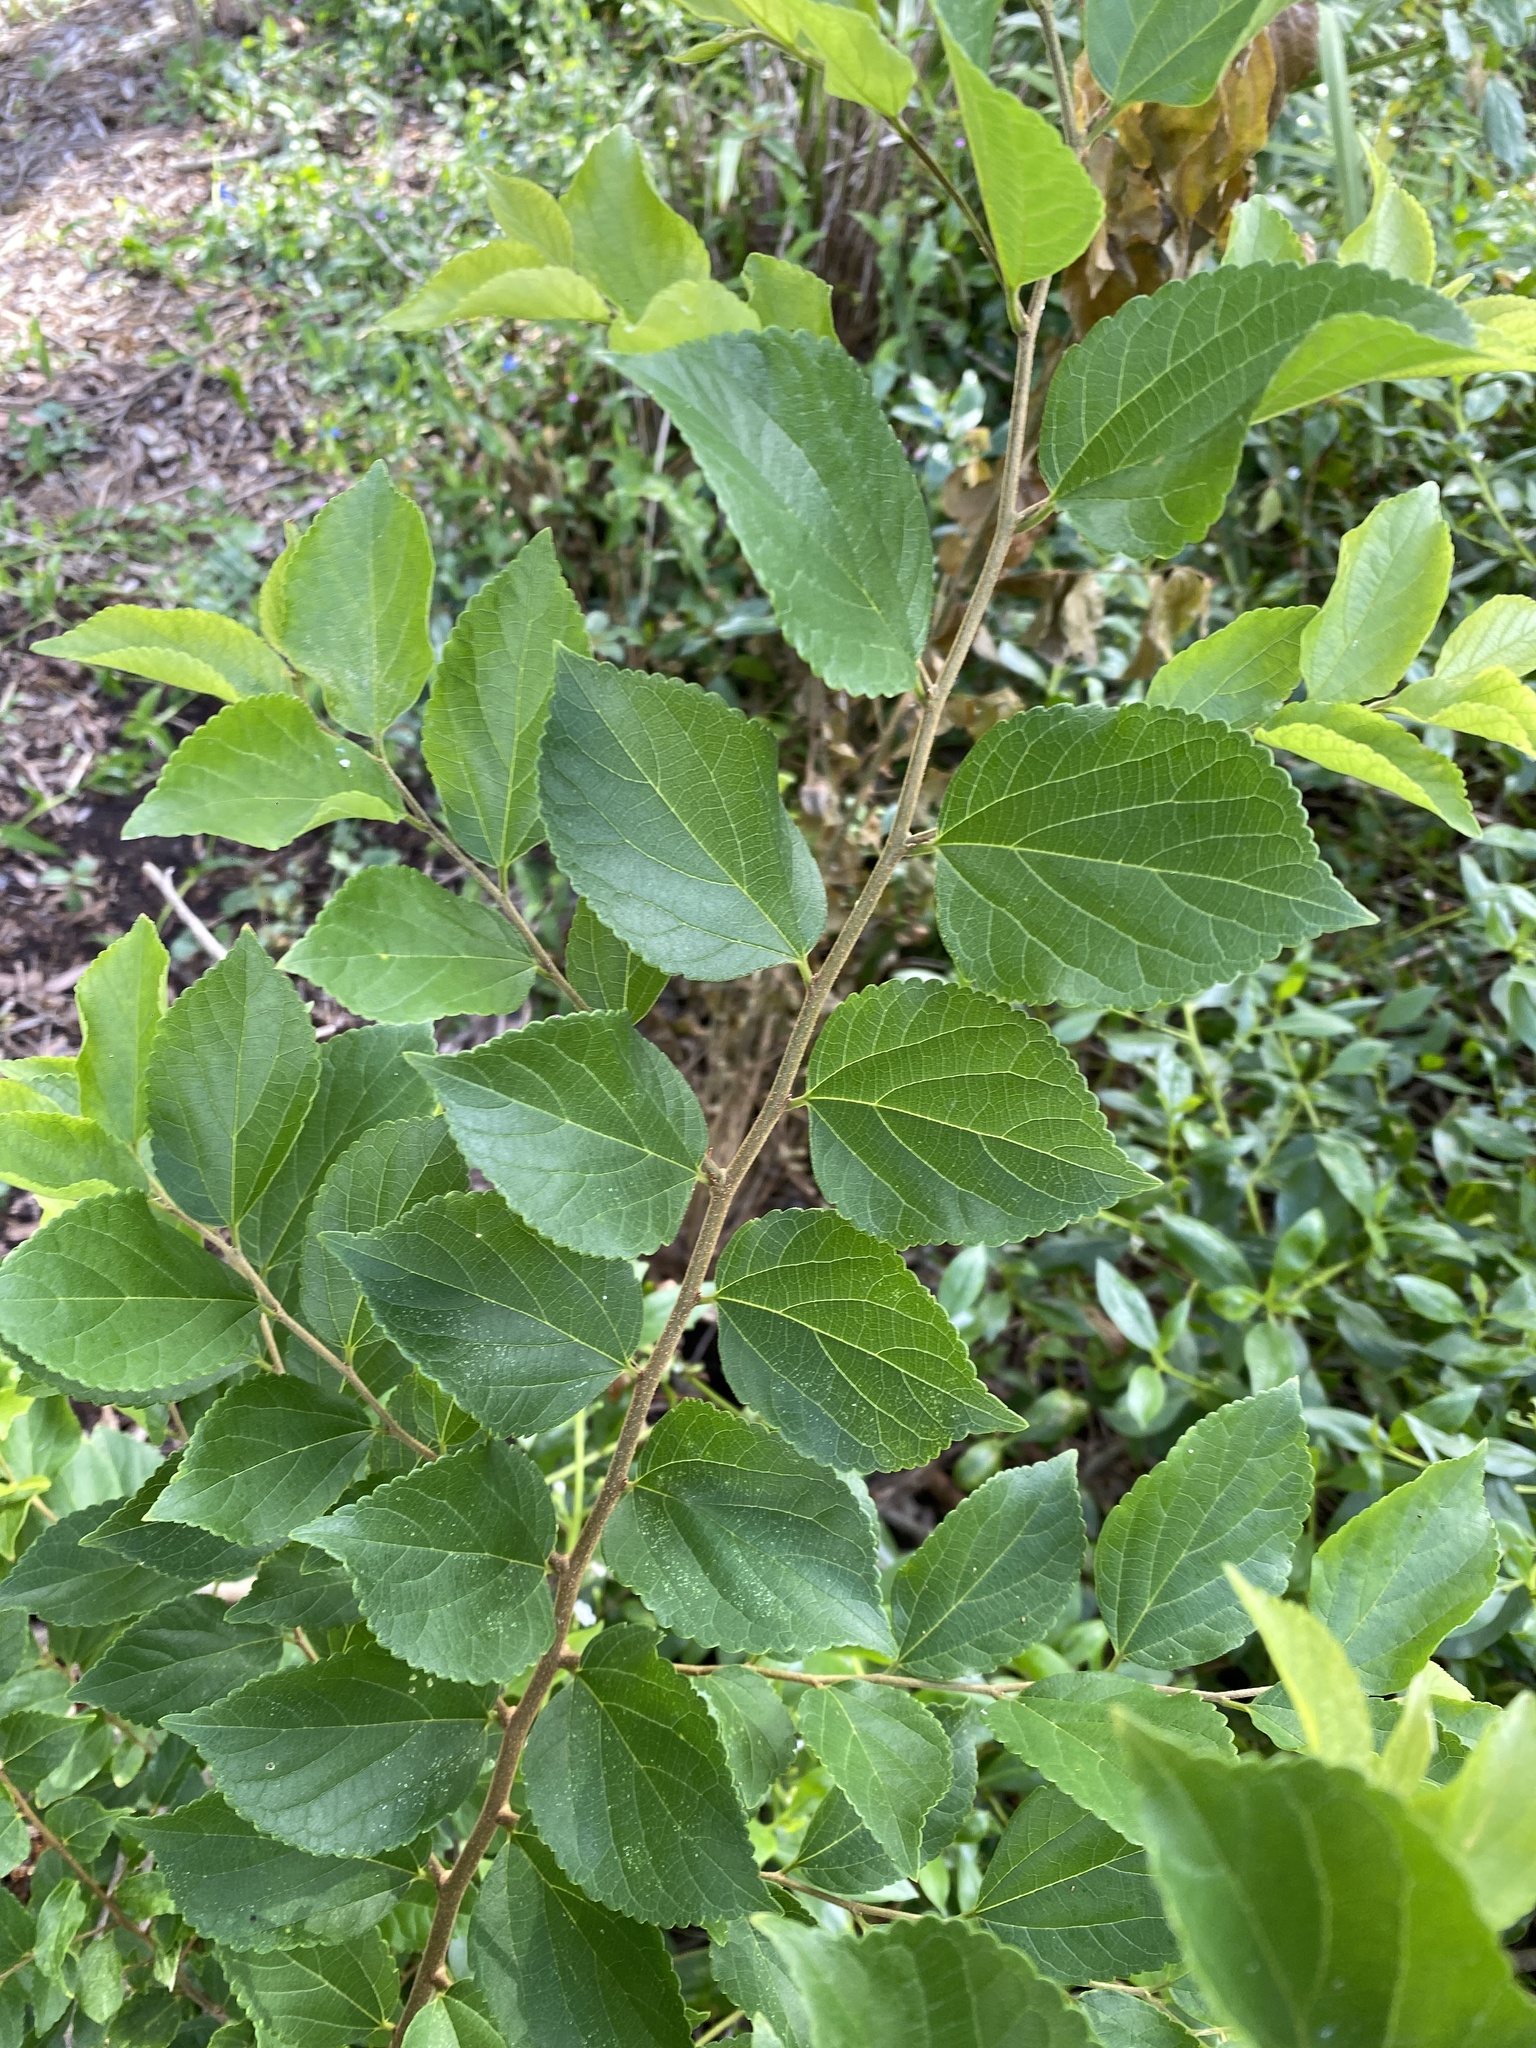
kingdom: Plantae
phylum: Tracheophyta
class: Magnoliopsida
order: Rosales
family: Cannabaceae
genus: Celtis
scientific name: Celtis sinensis
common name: Chinese hackberry
